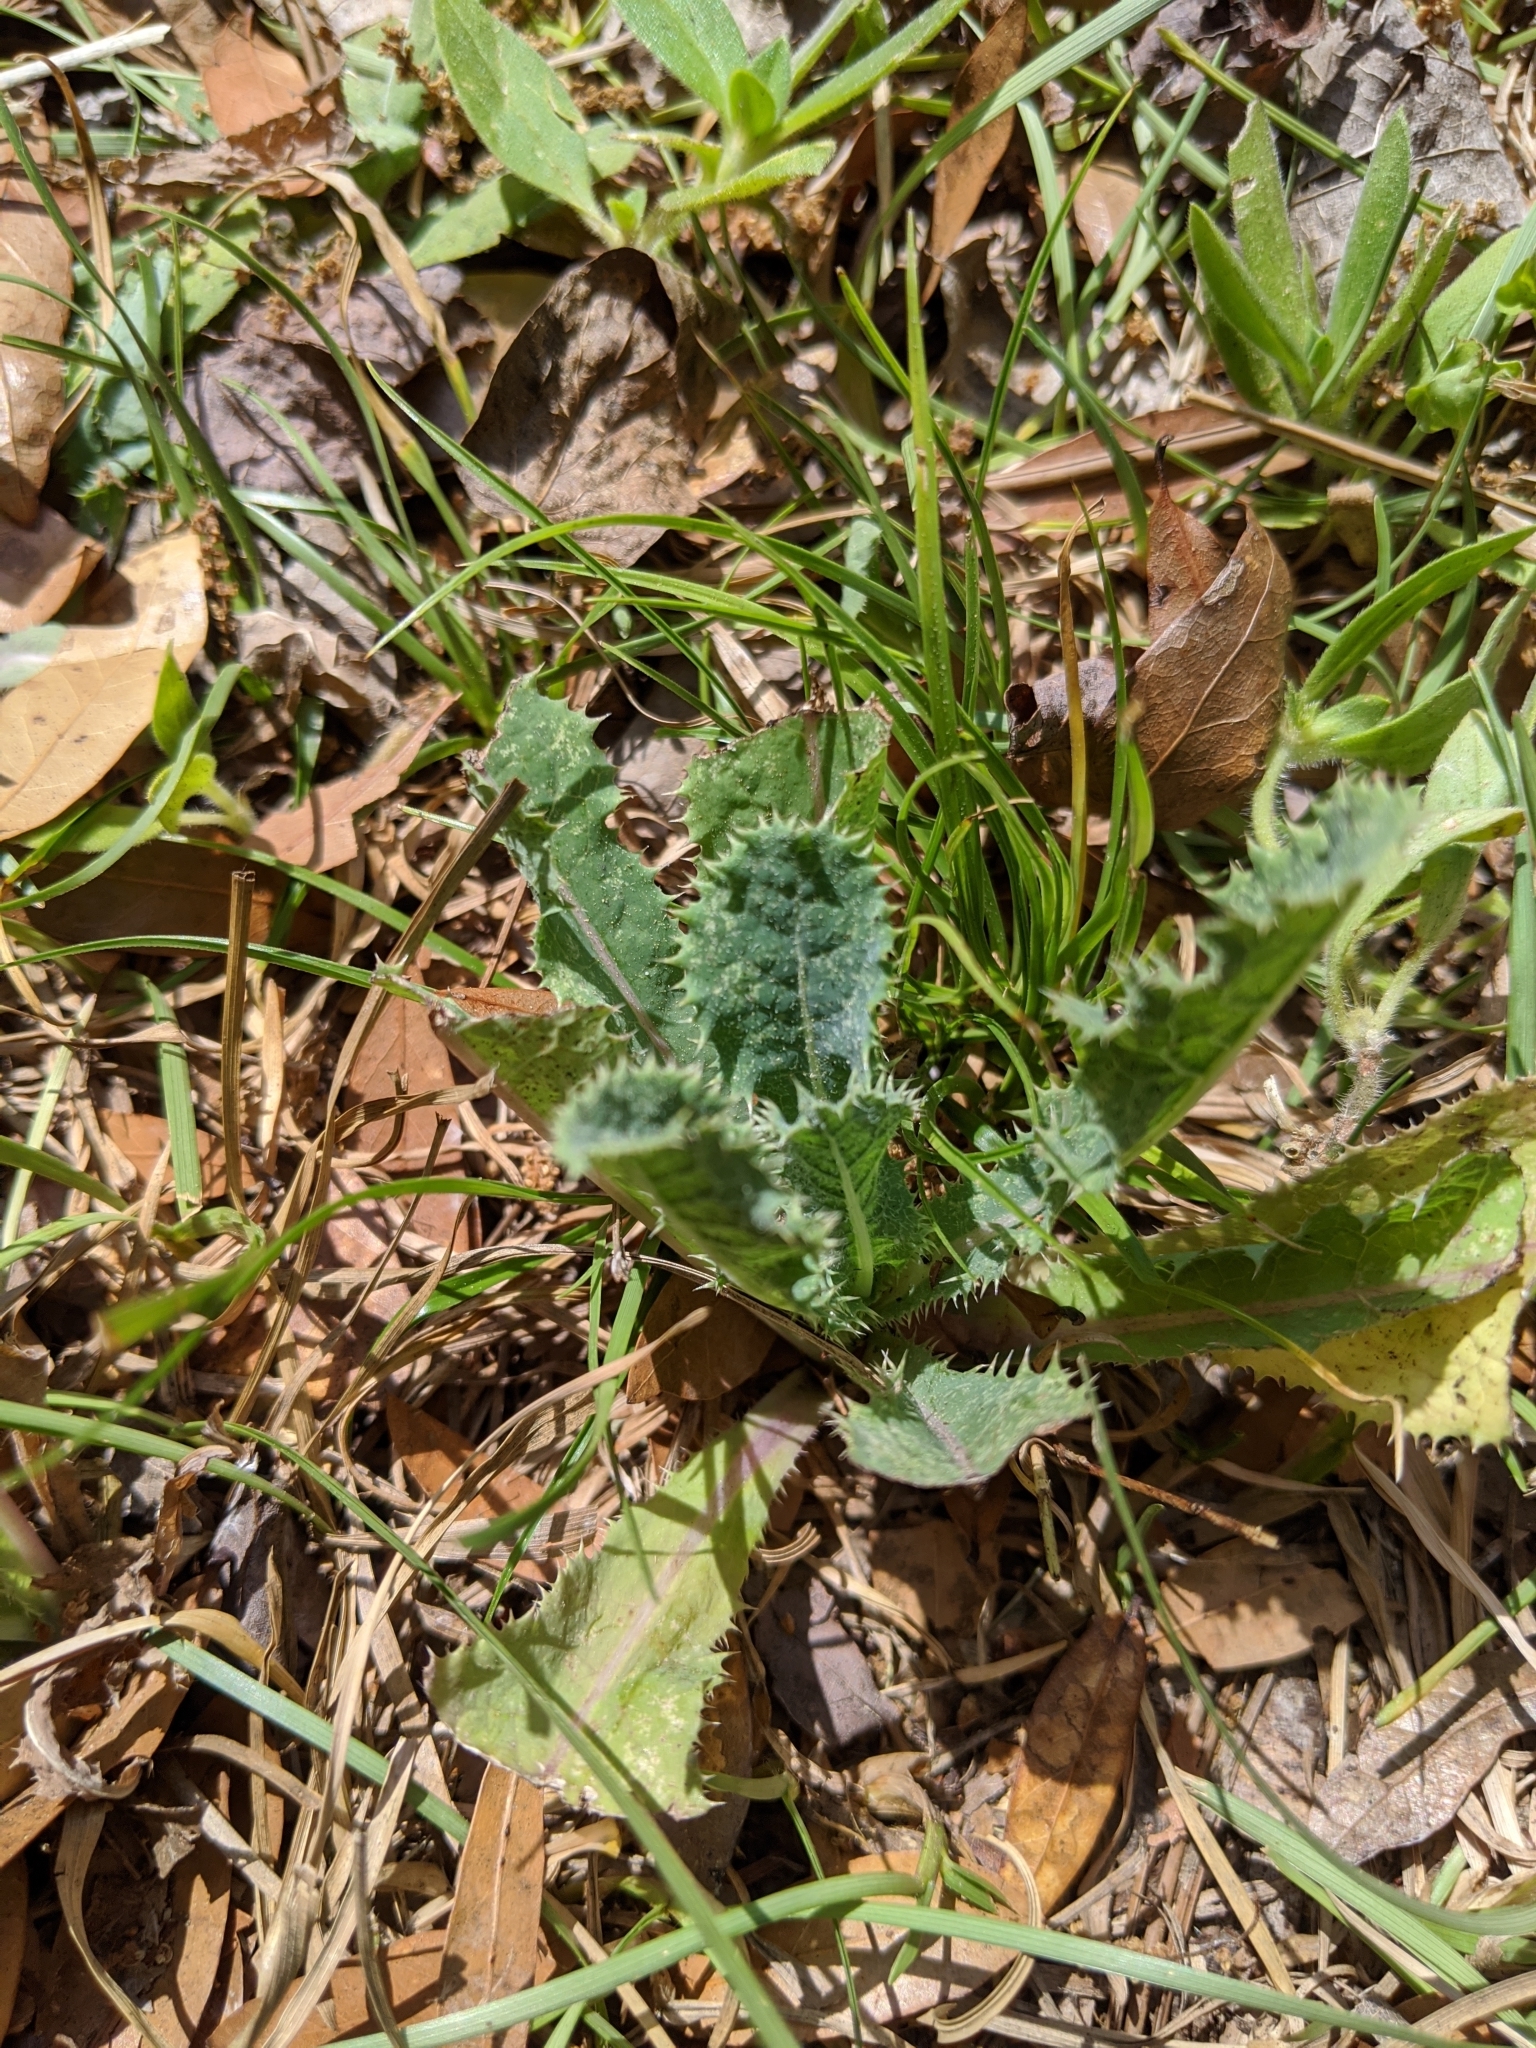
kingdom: Plantae
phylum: Tracheophyta
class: Magnoliopsida
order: Asterales
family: Asteraceae
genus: Sonchus
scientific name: Sonchus asper
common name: Prickly sow-thistle
